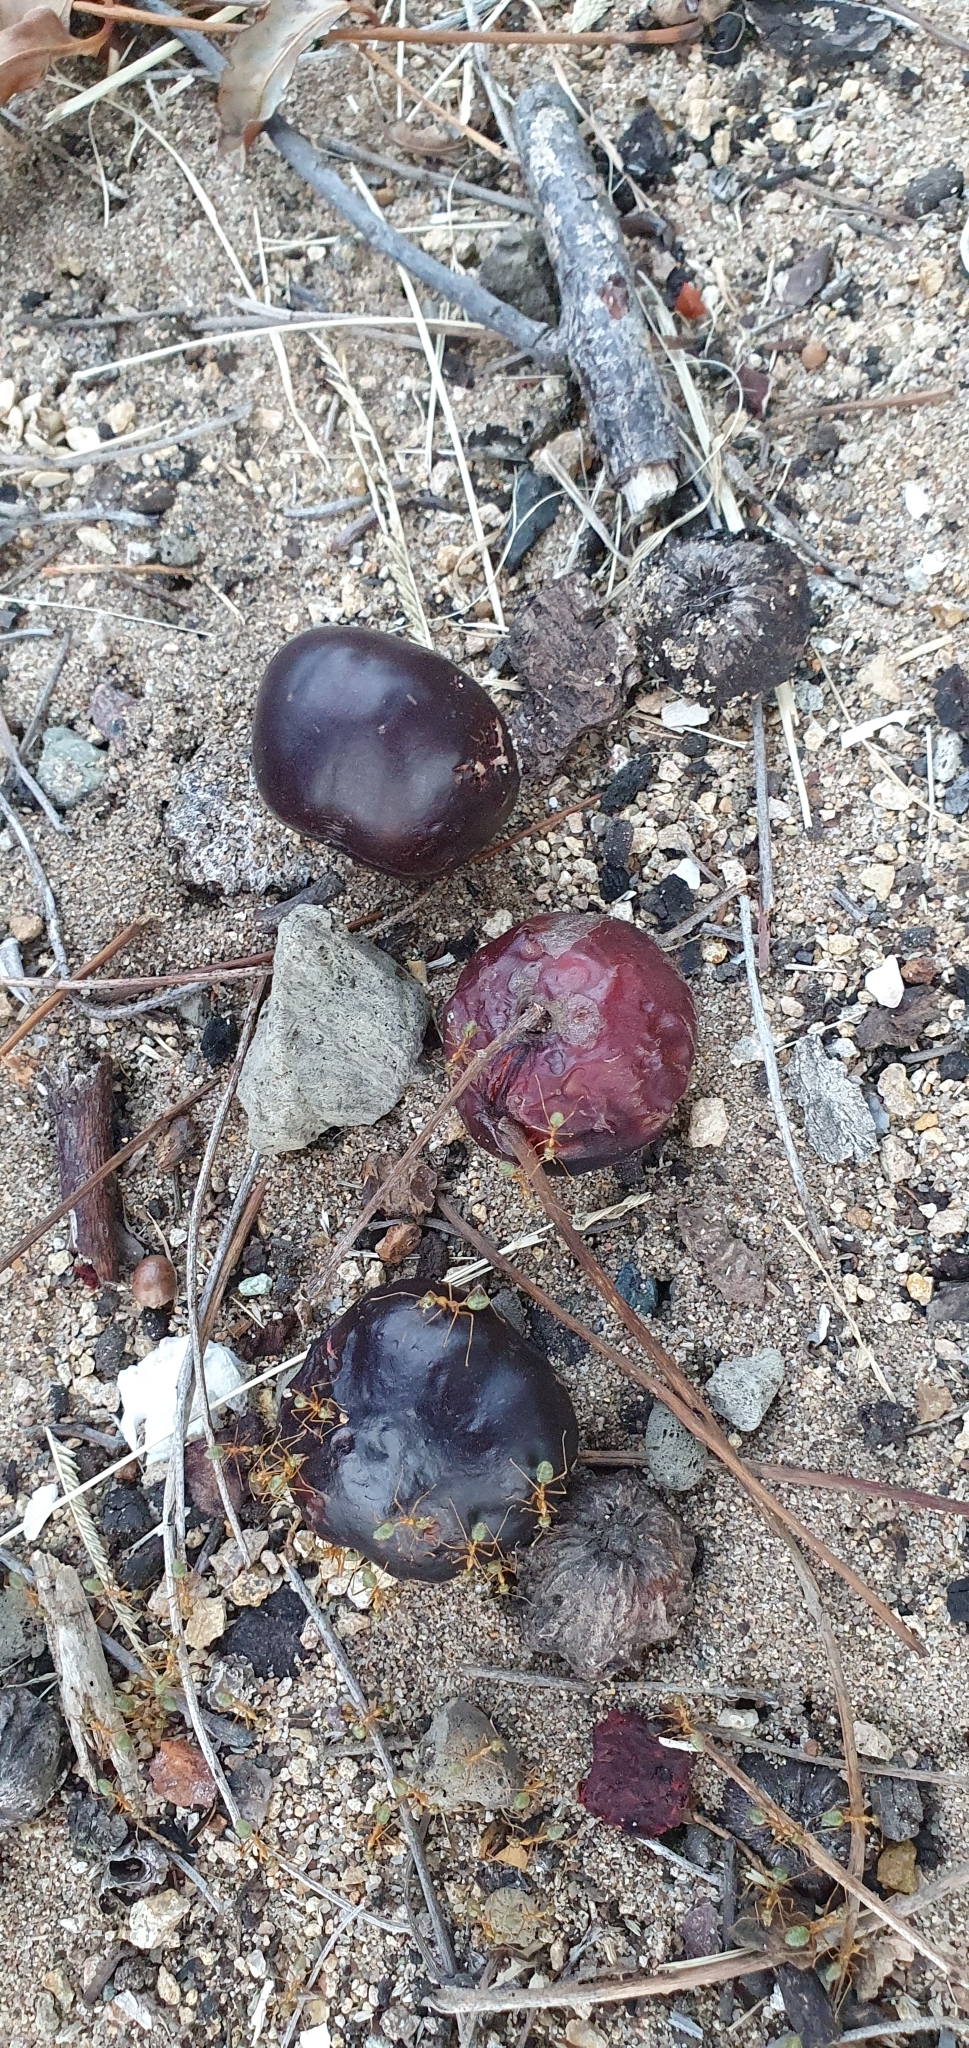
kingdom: Plantae
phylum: Tracheophyta
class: Magnoliopsida
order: Sapindales
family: Anacardiaceae
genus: Pleiogynium
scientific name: Pleiogynium timoriense
